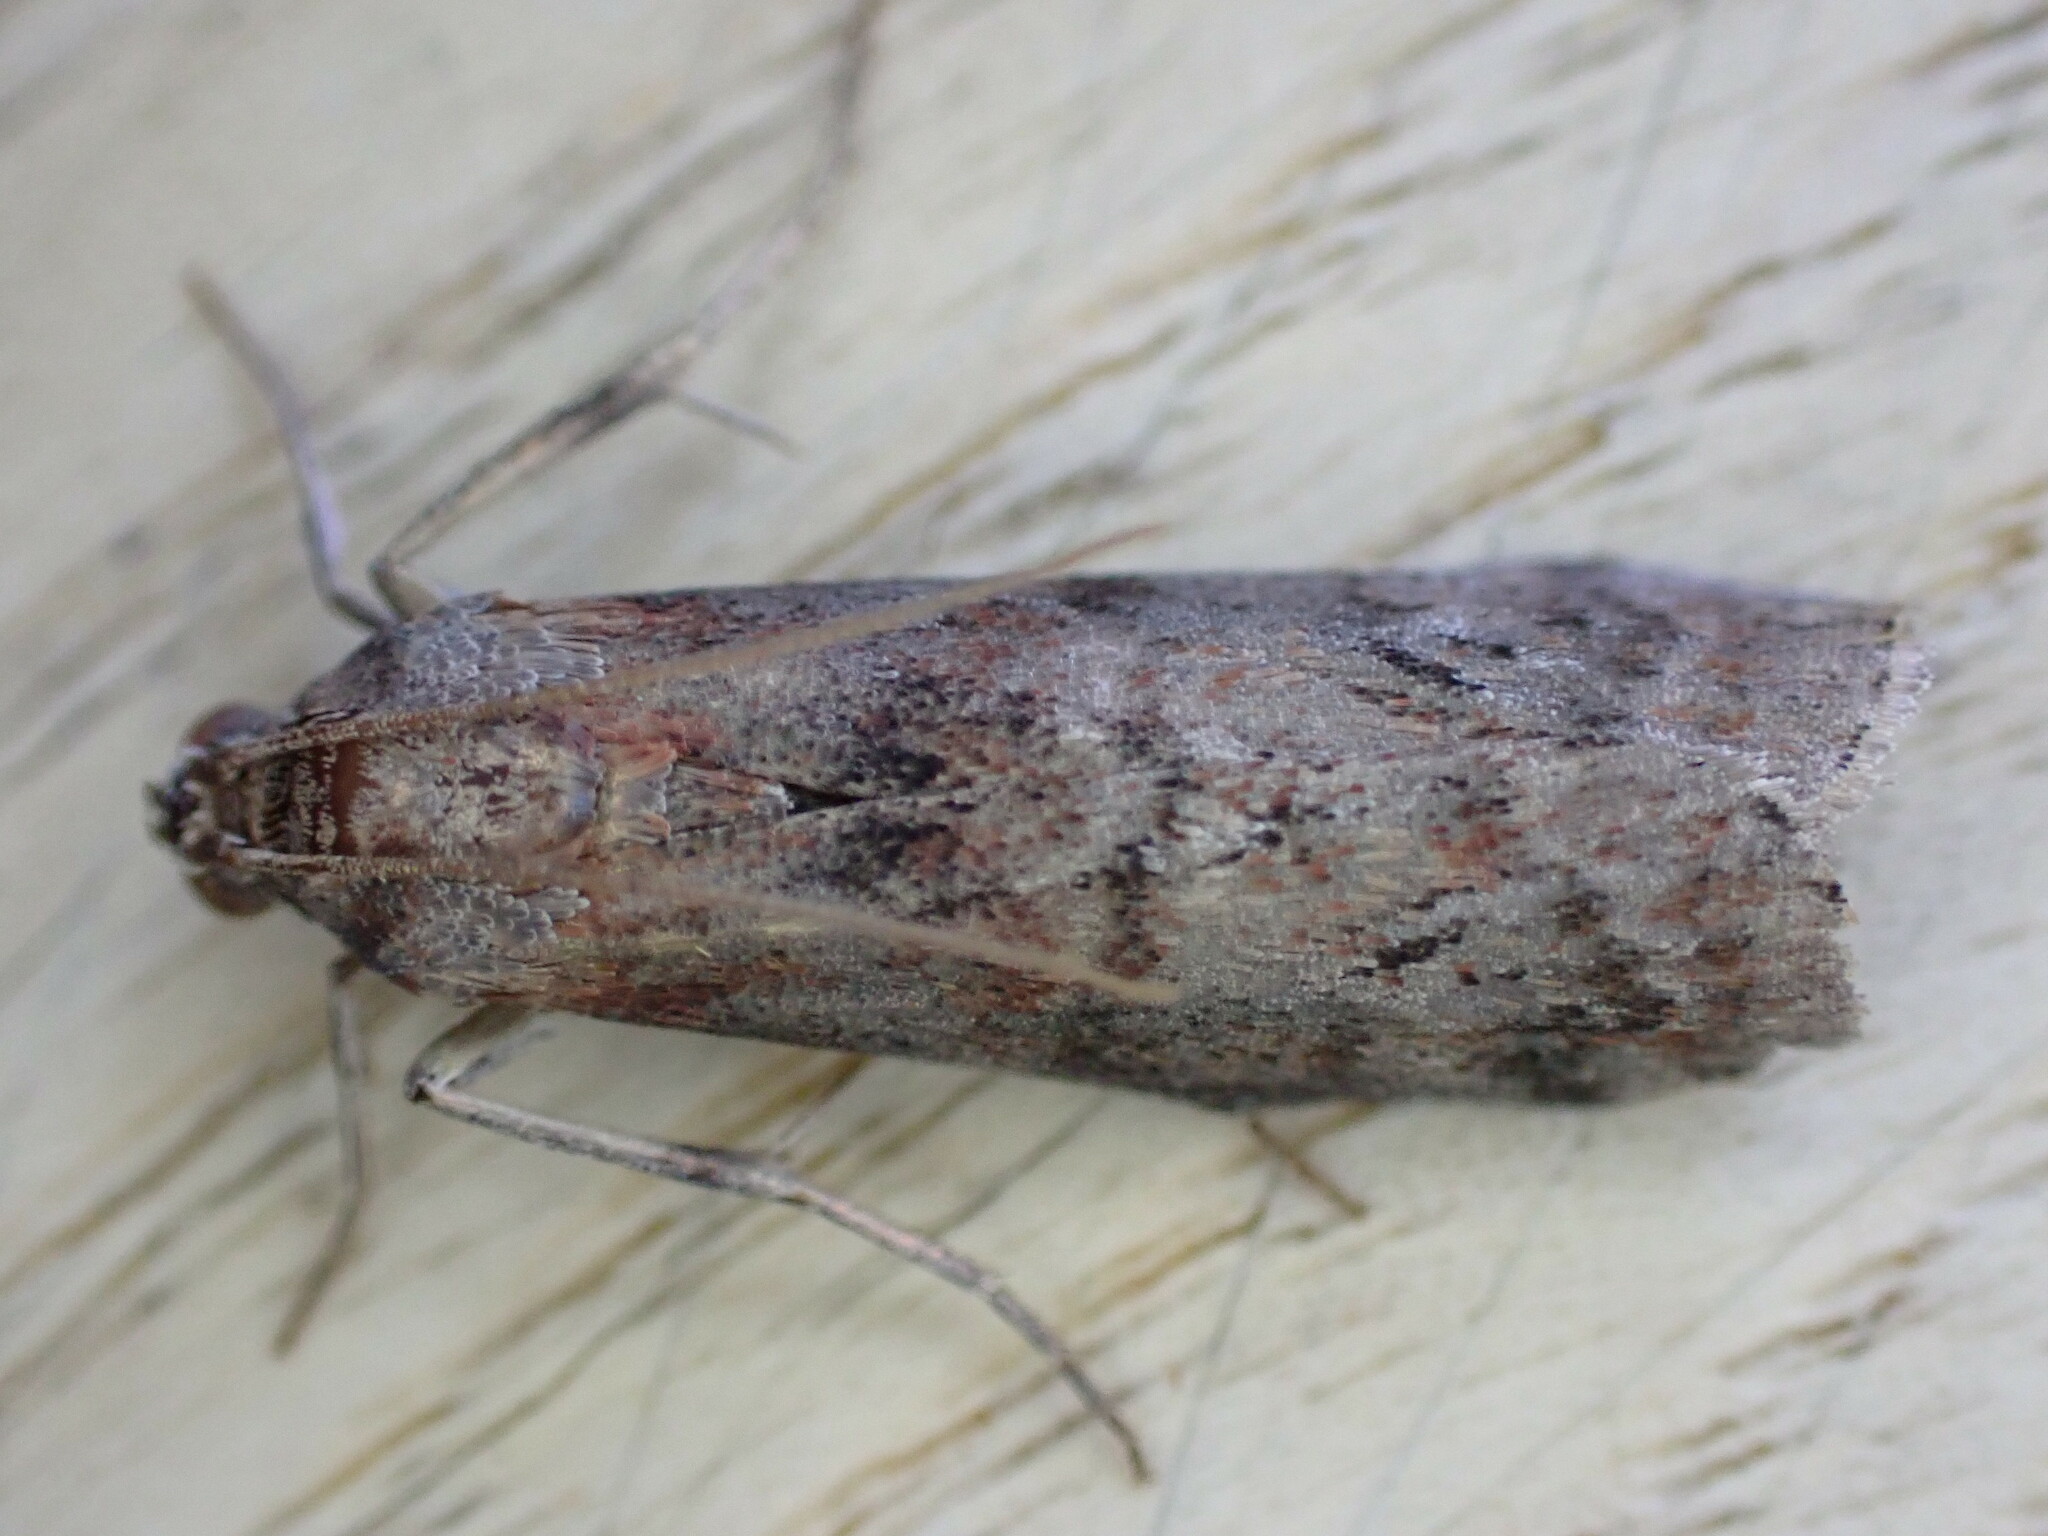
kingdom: Animalia
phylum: Arthropoda
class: Insecta
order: Lepidoptera
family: Pyralidae
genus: Phycita
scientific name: Phycita roborella
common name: Dotted oak knot-horn
